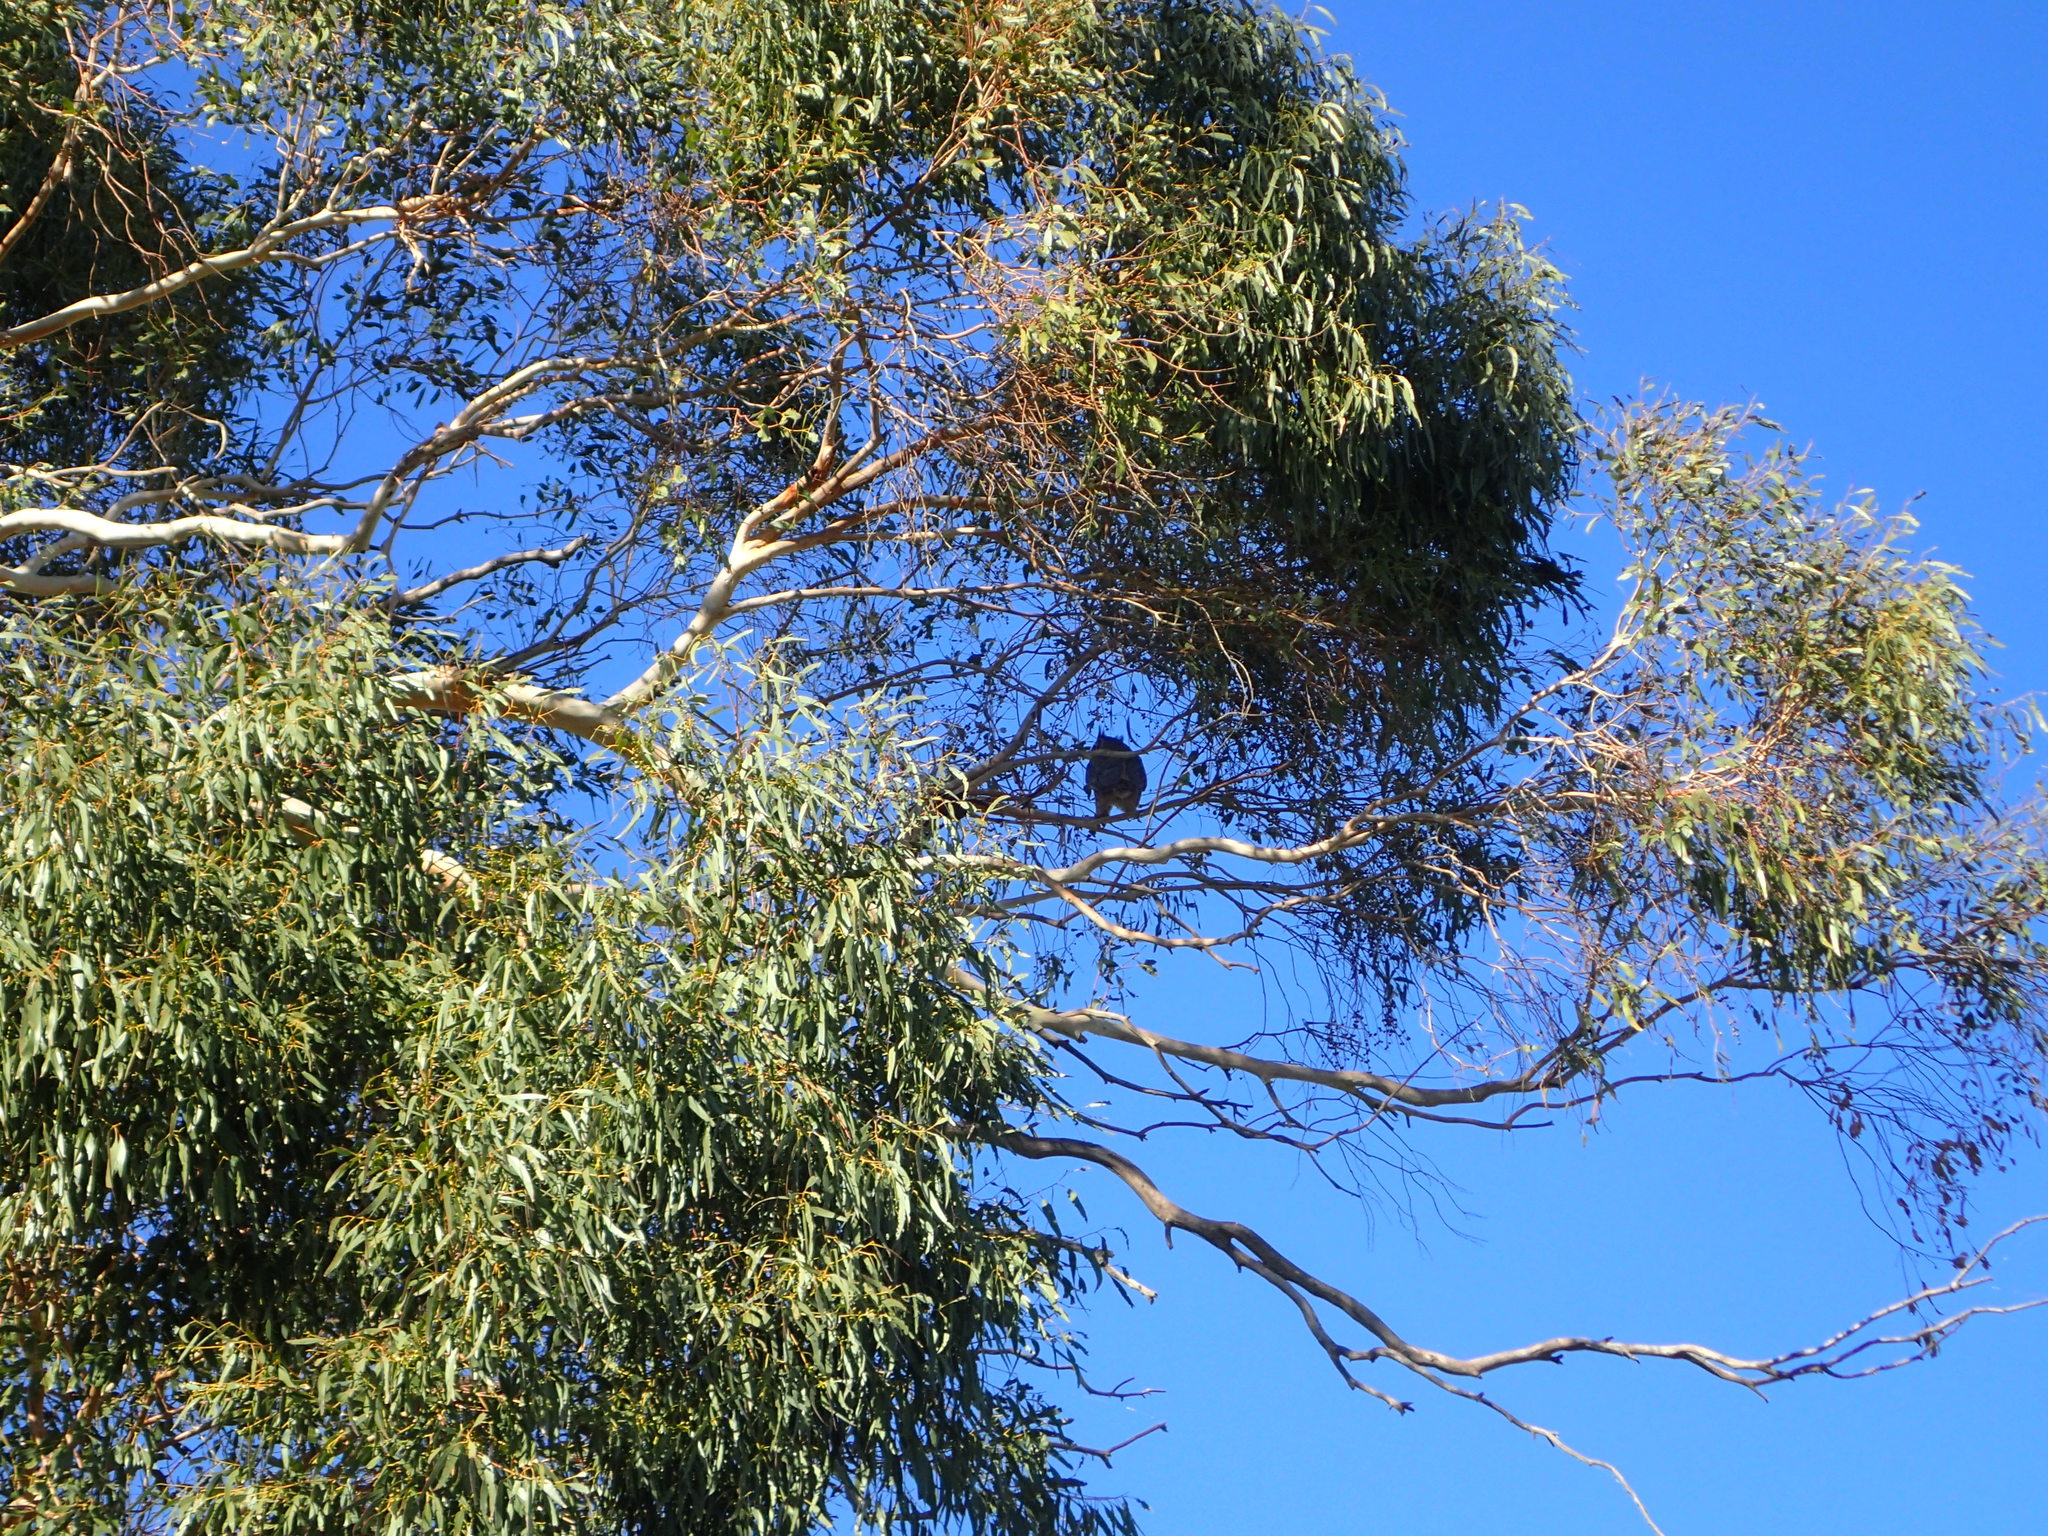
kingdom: Animalia
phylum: Chordata
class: Aves
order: Strigiformes
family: Strigidae
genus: Bubo
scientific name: Bubo virginianus
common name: Great horned owl
